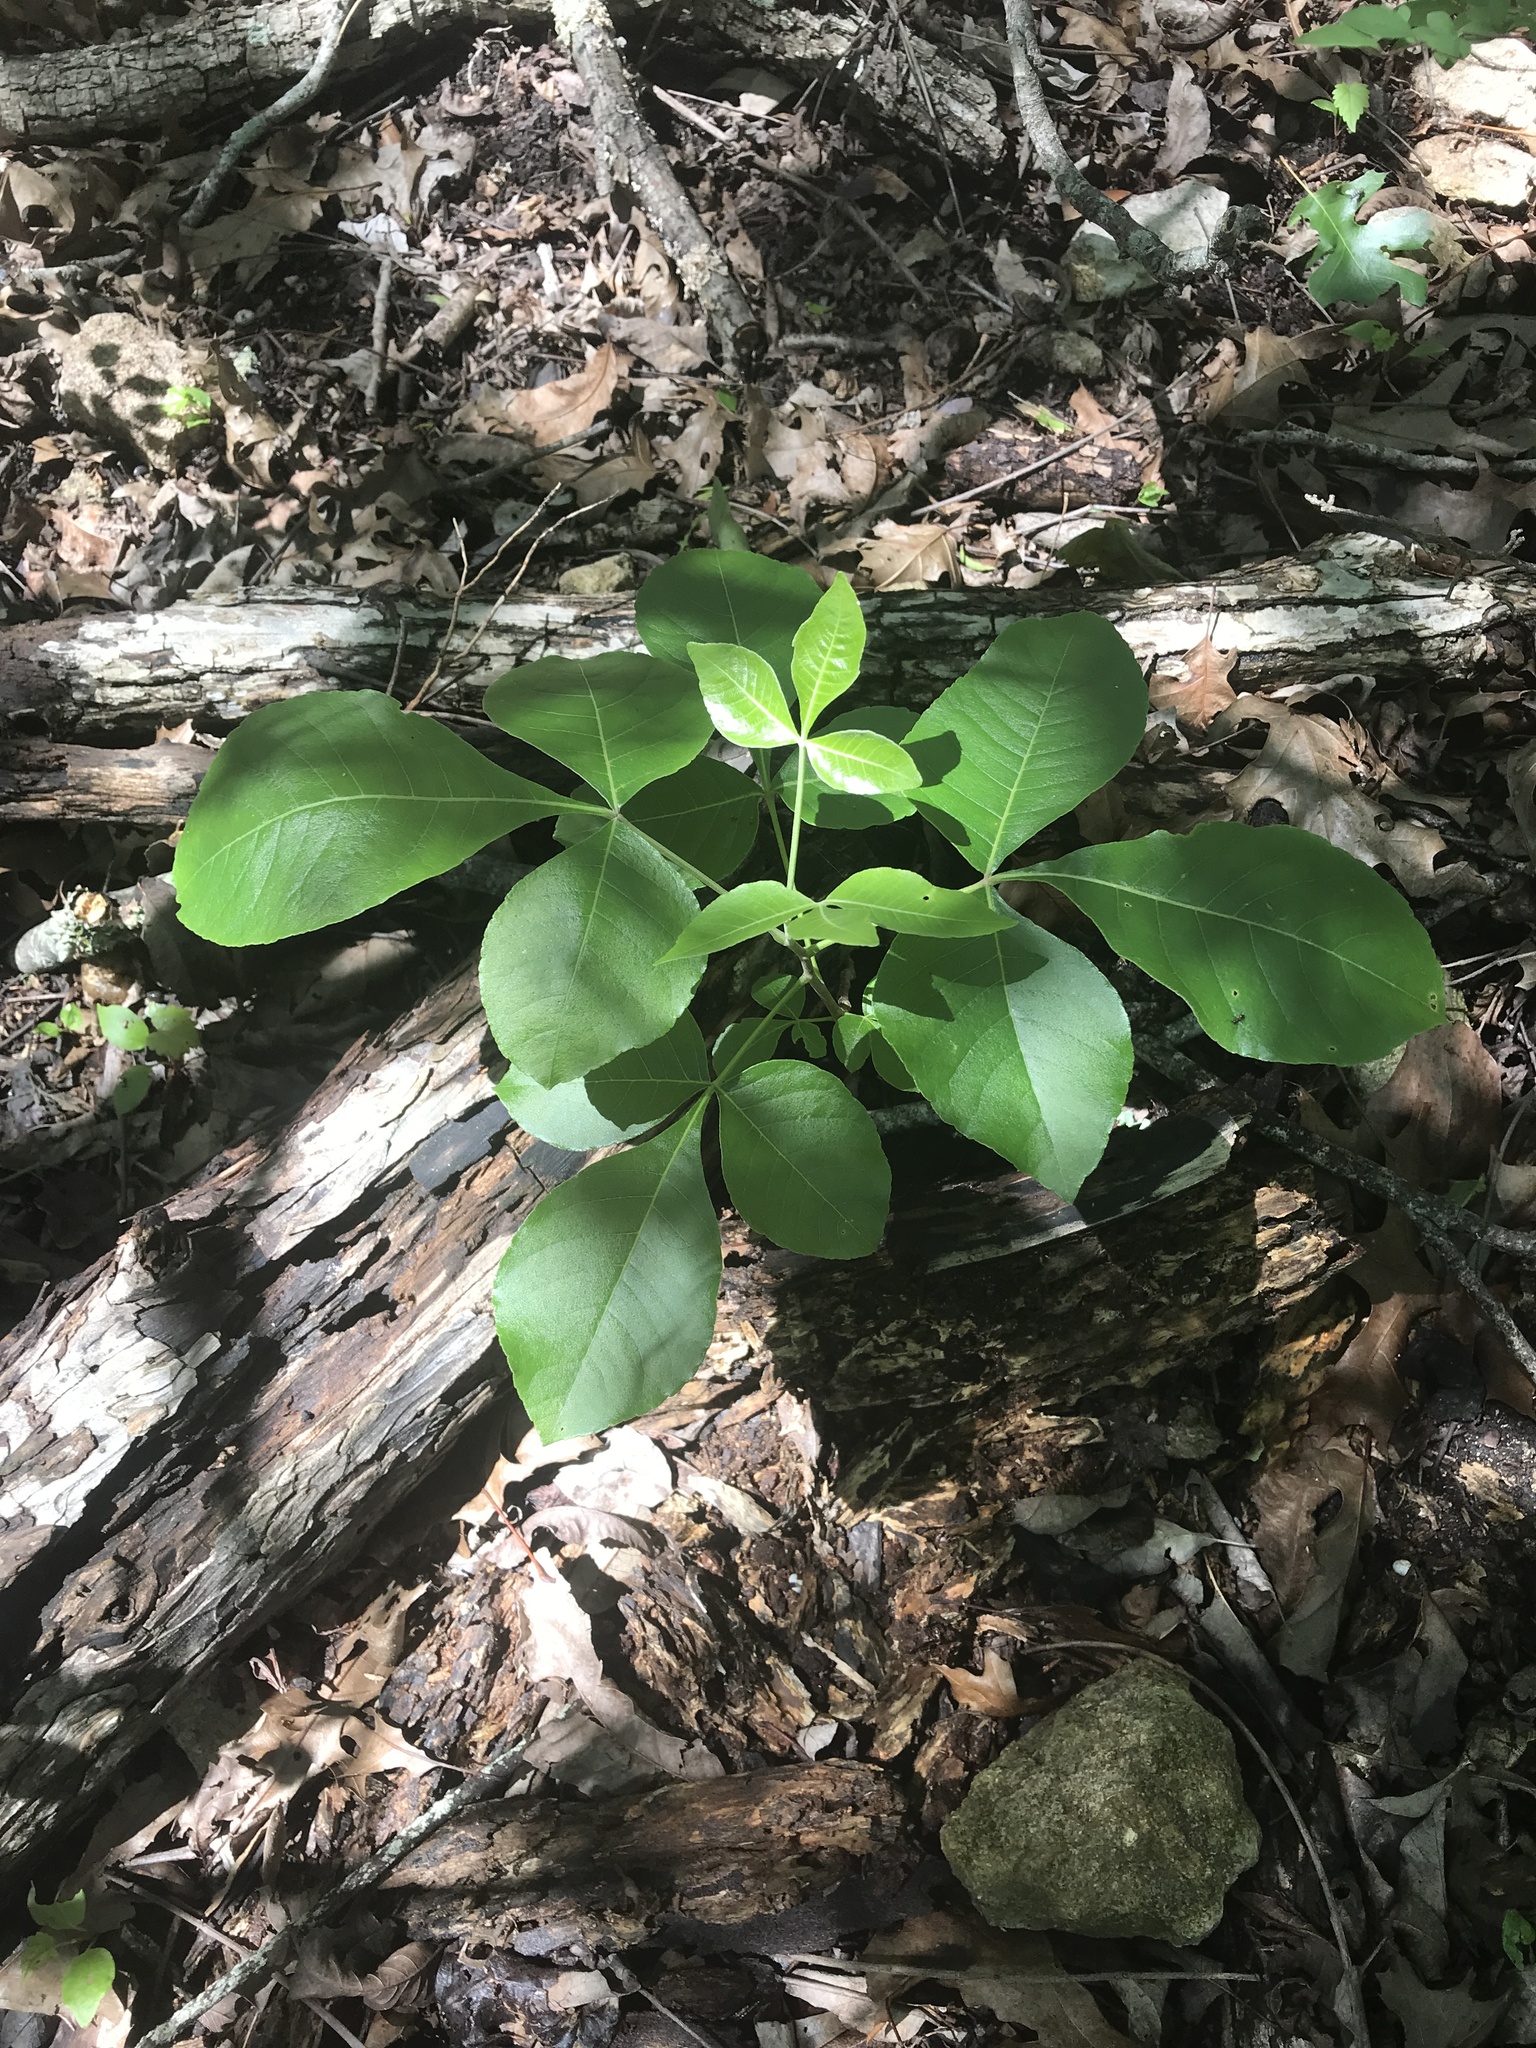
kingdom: Plantae
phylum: Tracheophyta
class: Magnoliopsida
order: Sapindales
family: Rutaceae
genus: Ptelea
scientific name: Ptelea trifoliata
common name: Common hop-tree
